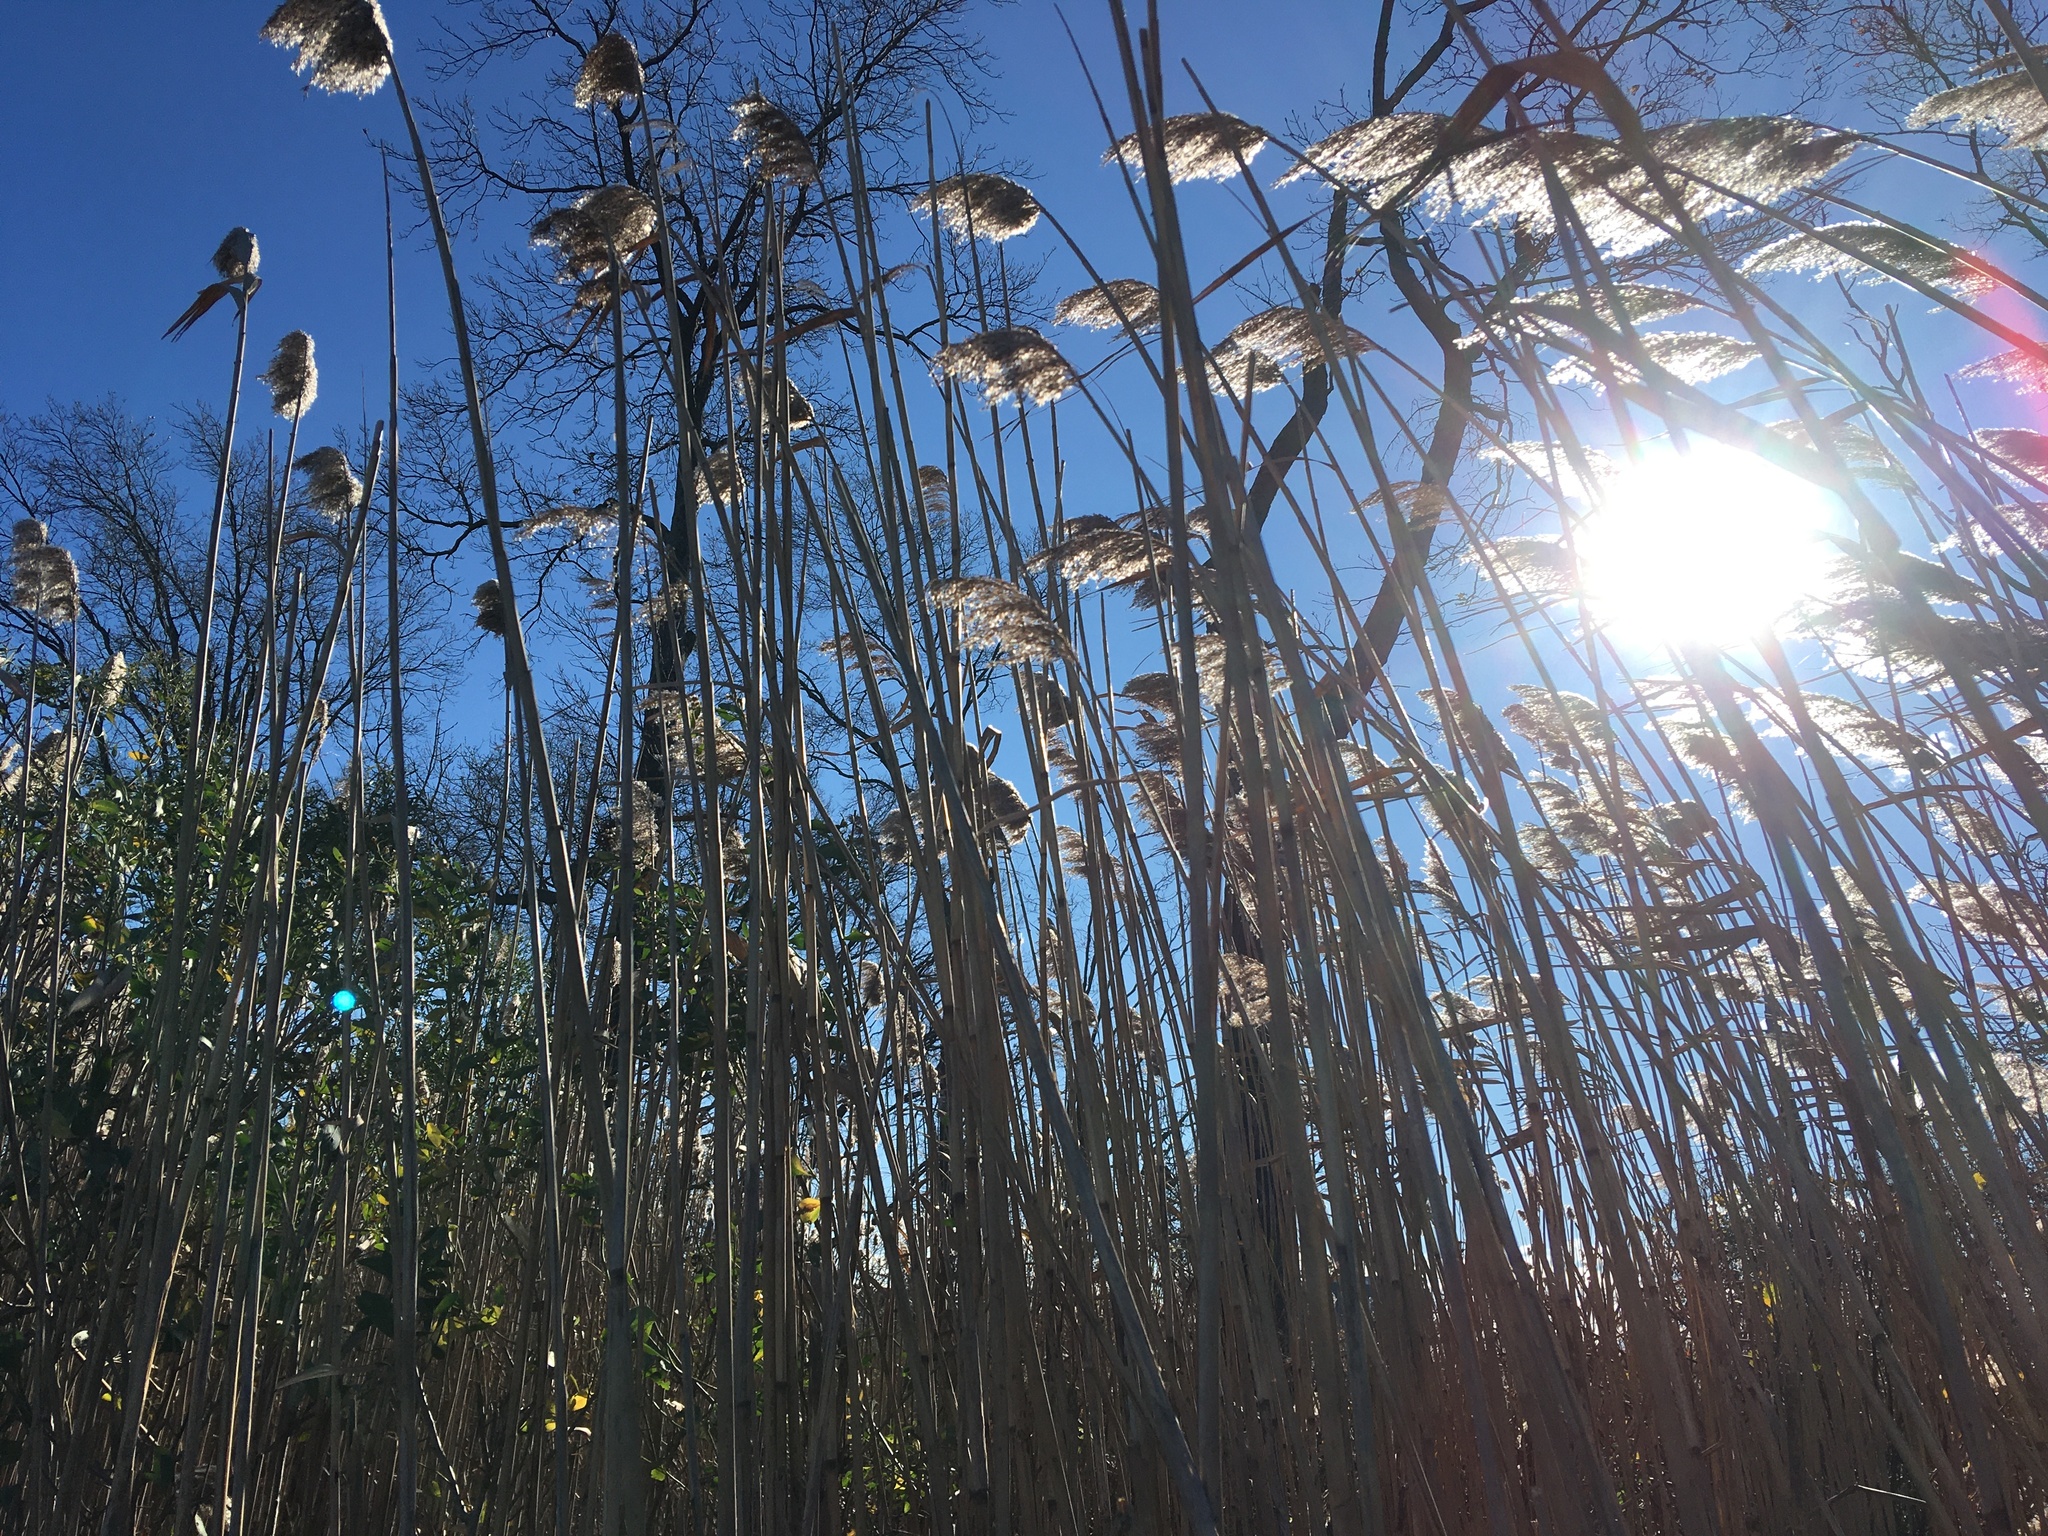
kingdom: Plantae
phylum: Tracheophyta
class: Liliopsida
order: Poales
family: Poaceae
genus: Phragmites
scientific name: Phragmites australis
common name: Common reed
